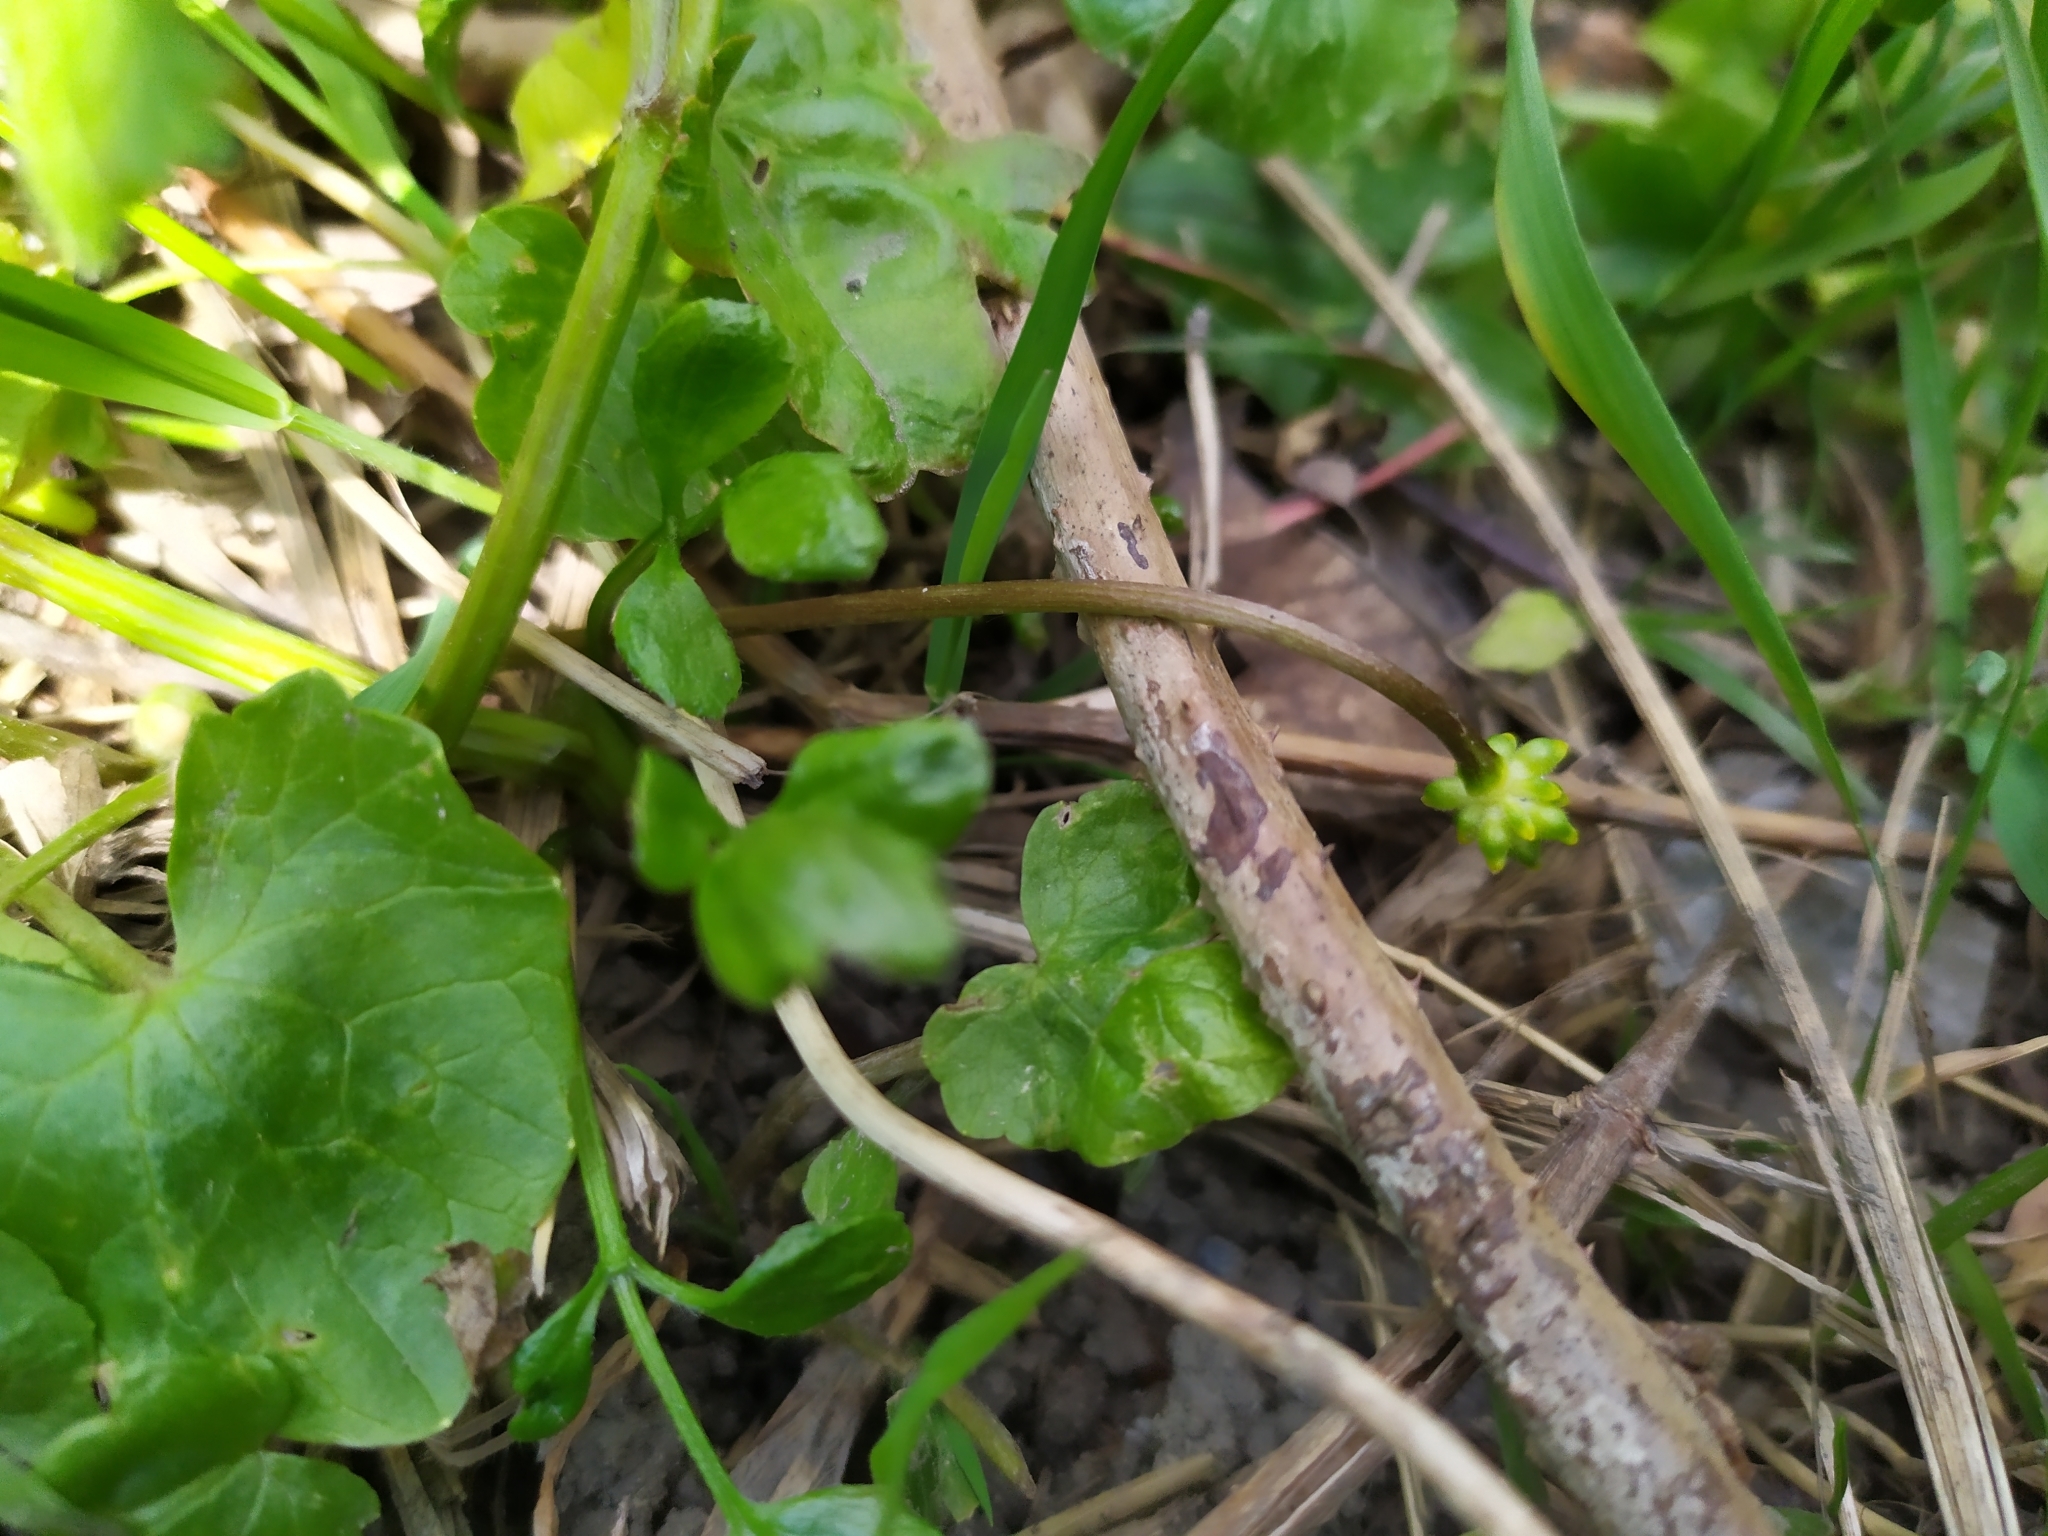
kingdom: Plantae
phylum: Tracheophyta
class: Magnoliopsida
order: Ranunculales
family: Ranunculaceae
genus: Ficaria
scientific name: Ficaria
